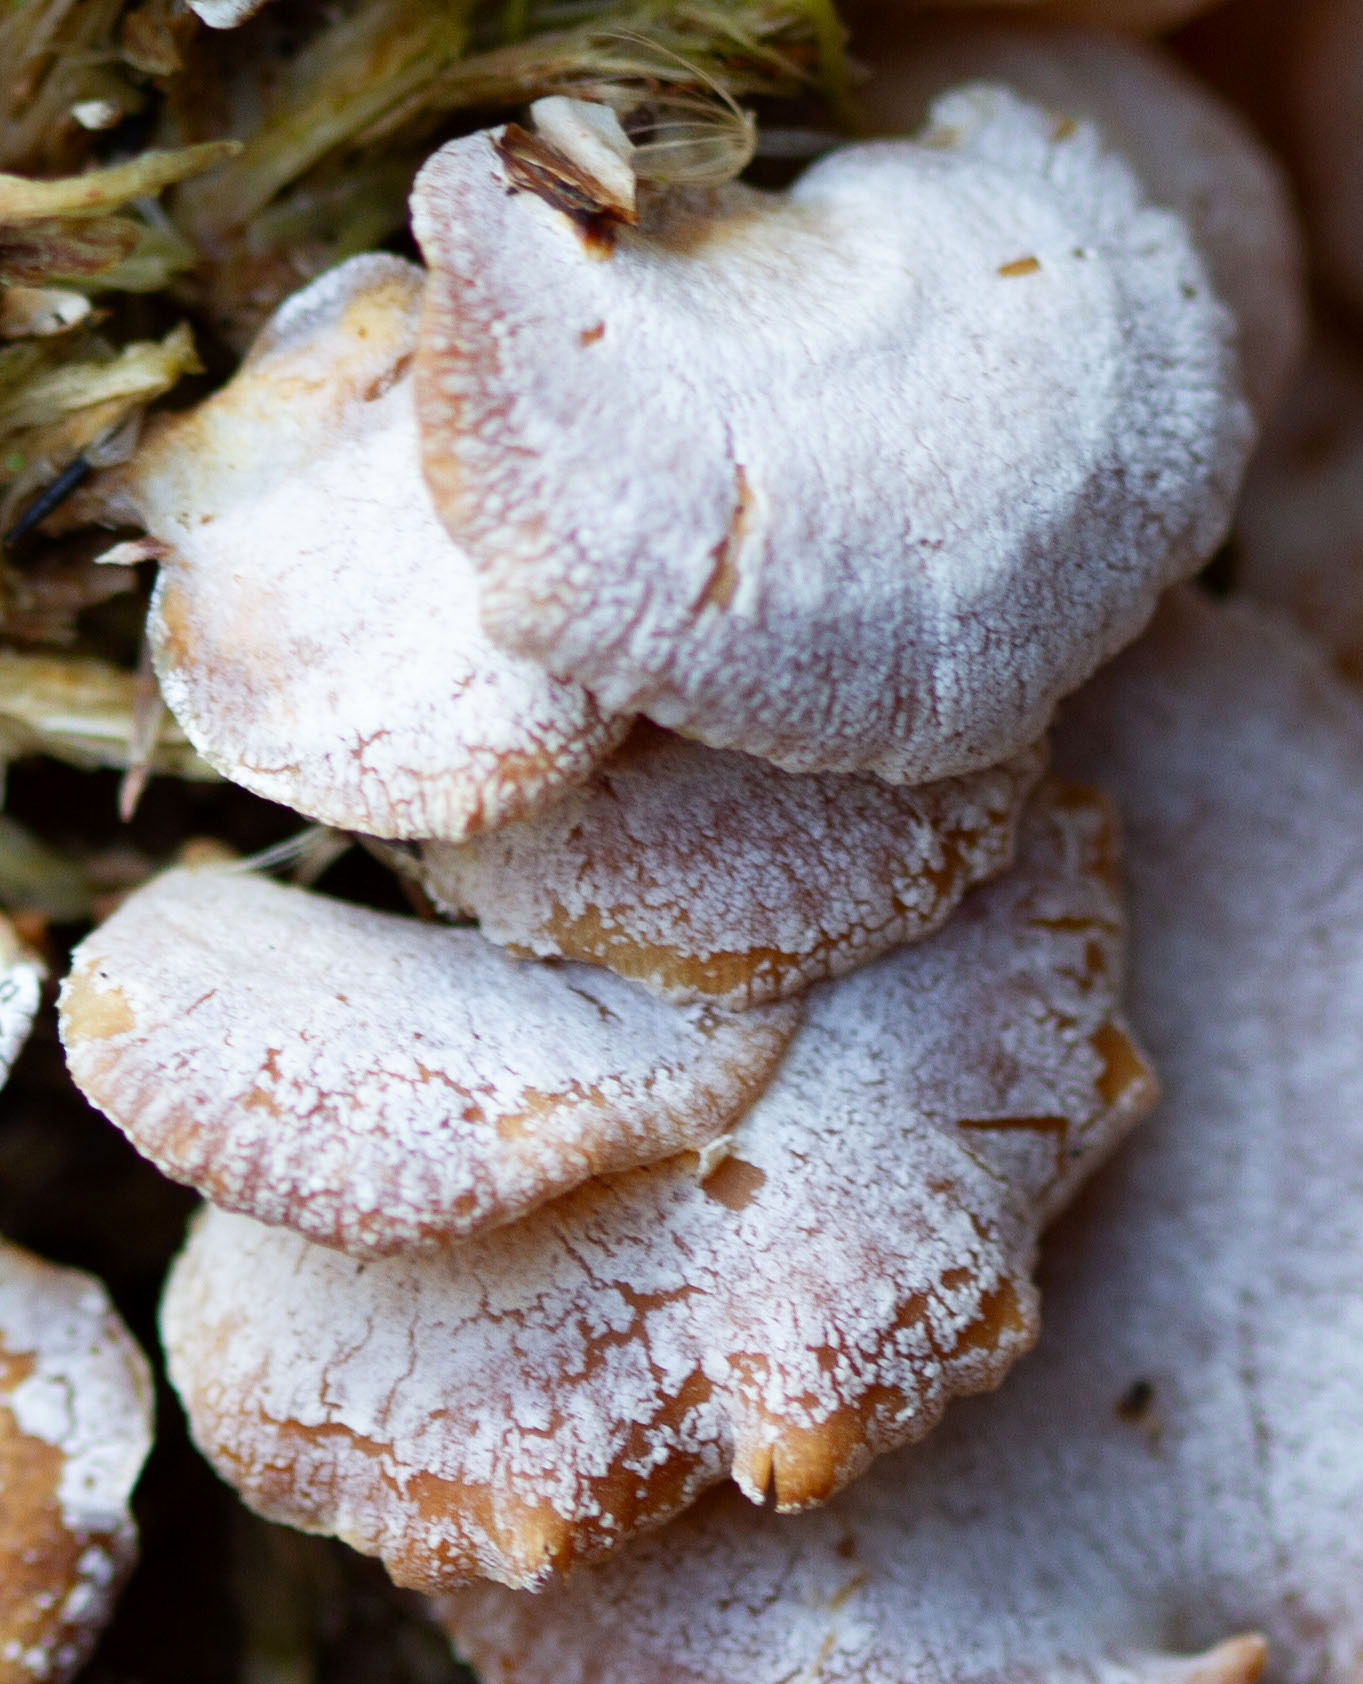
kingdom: Fungi
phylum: Basidiomycota
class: Agaricomycetes
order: Agaricales
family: Mycenaceae
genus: Panellus
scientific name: Panellus stipticus
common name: Bitter oysterling
